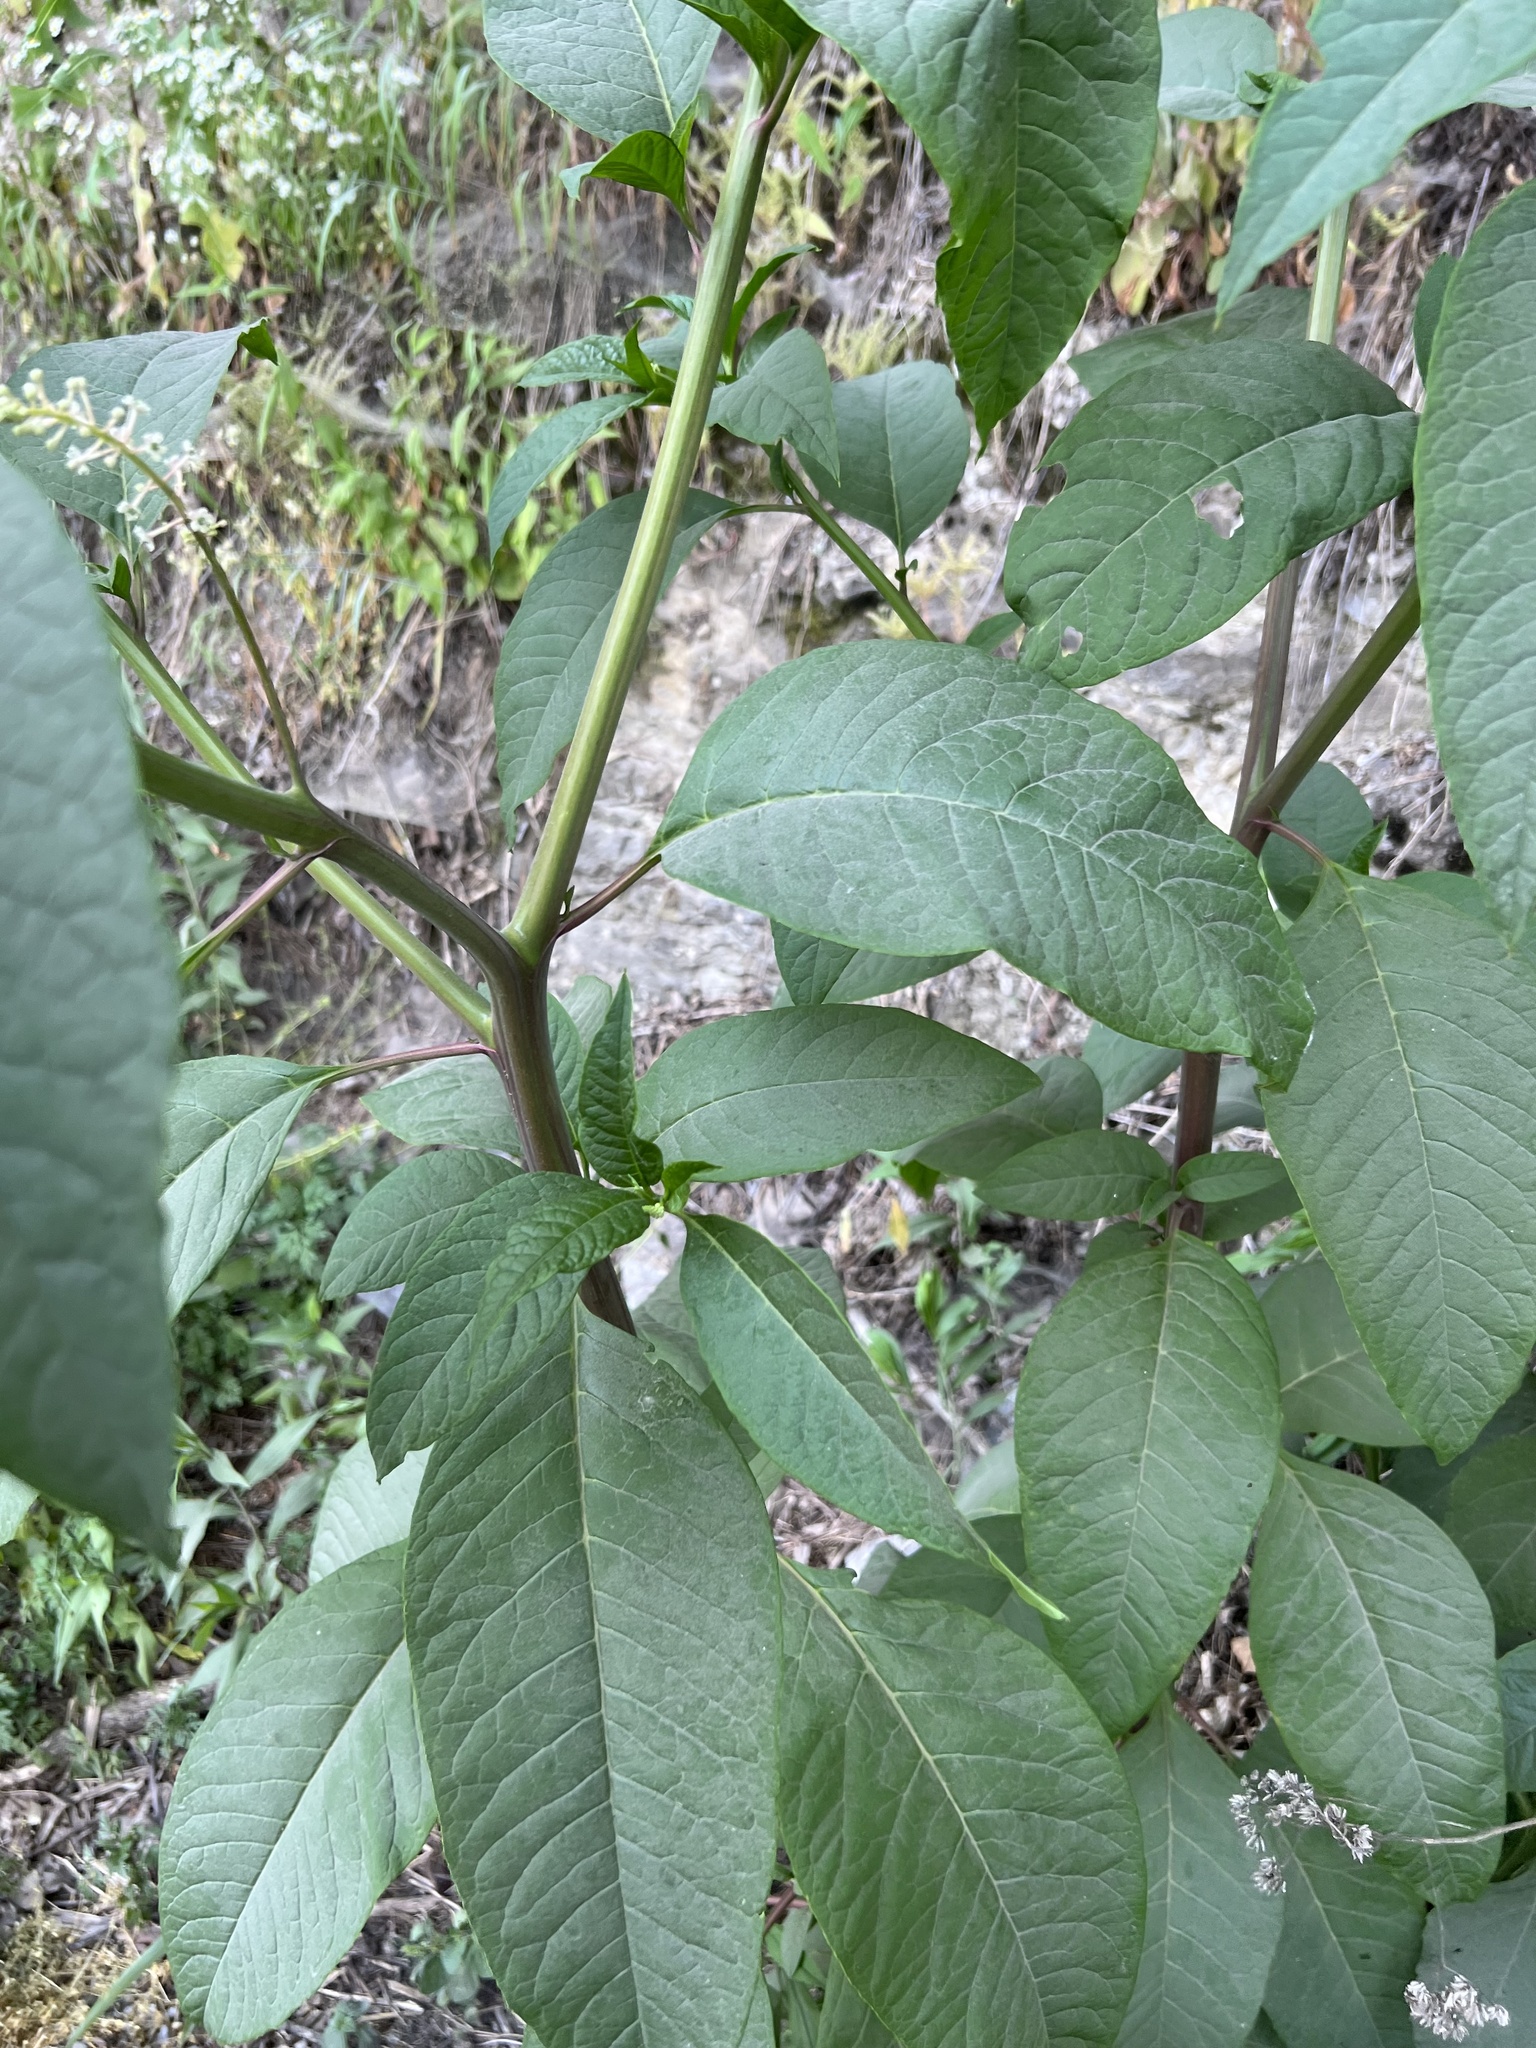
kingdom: Plantae
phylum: Tracheophyta
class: Magnoliopsida
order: Caryophyllales
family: Phytolaccaceae
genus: Phytolacca
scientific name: Phytolacca americana
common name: American pokeweed
